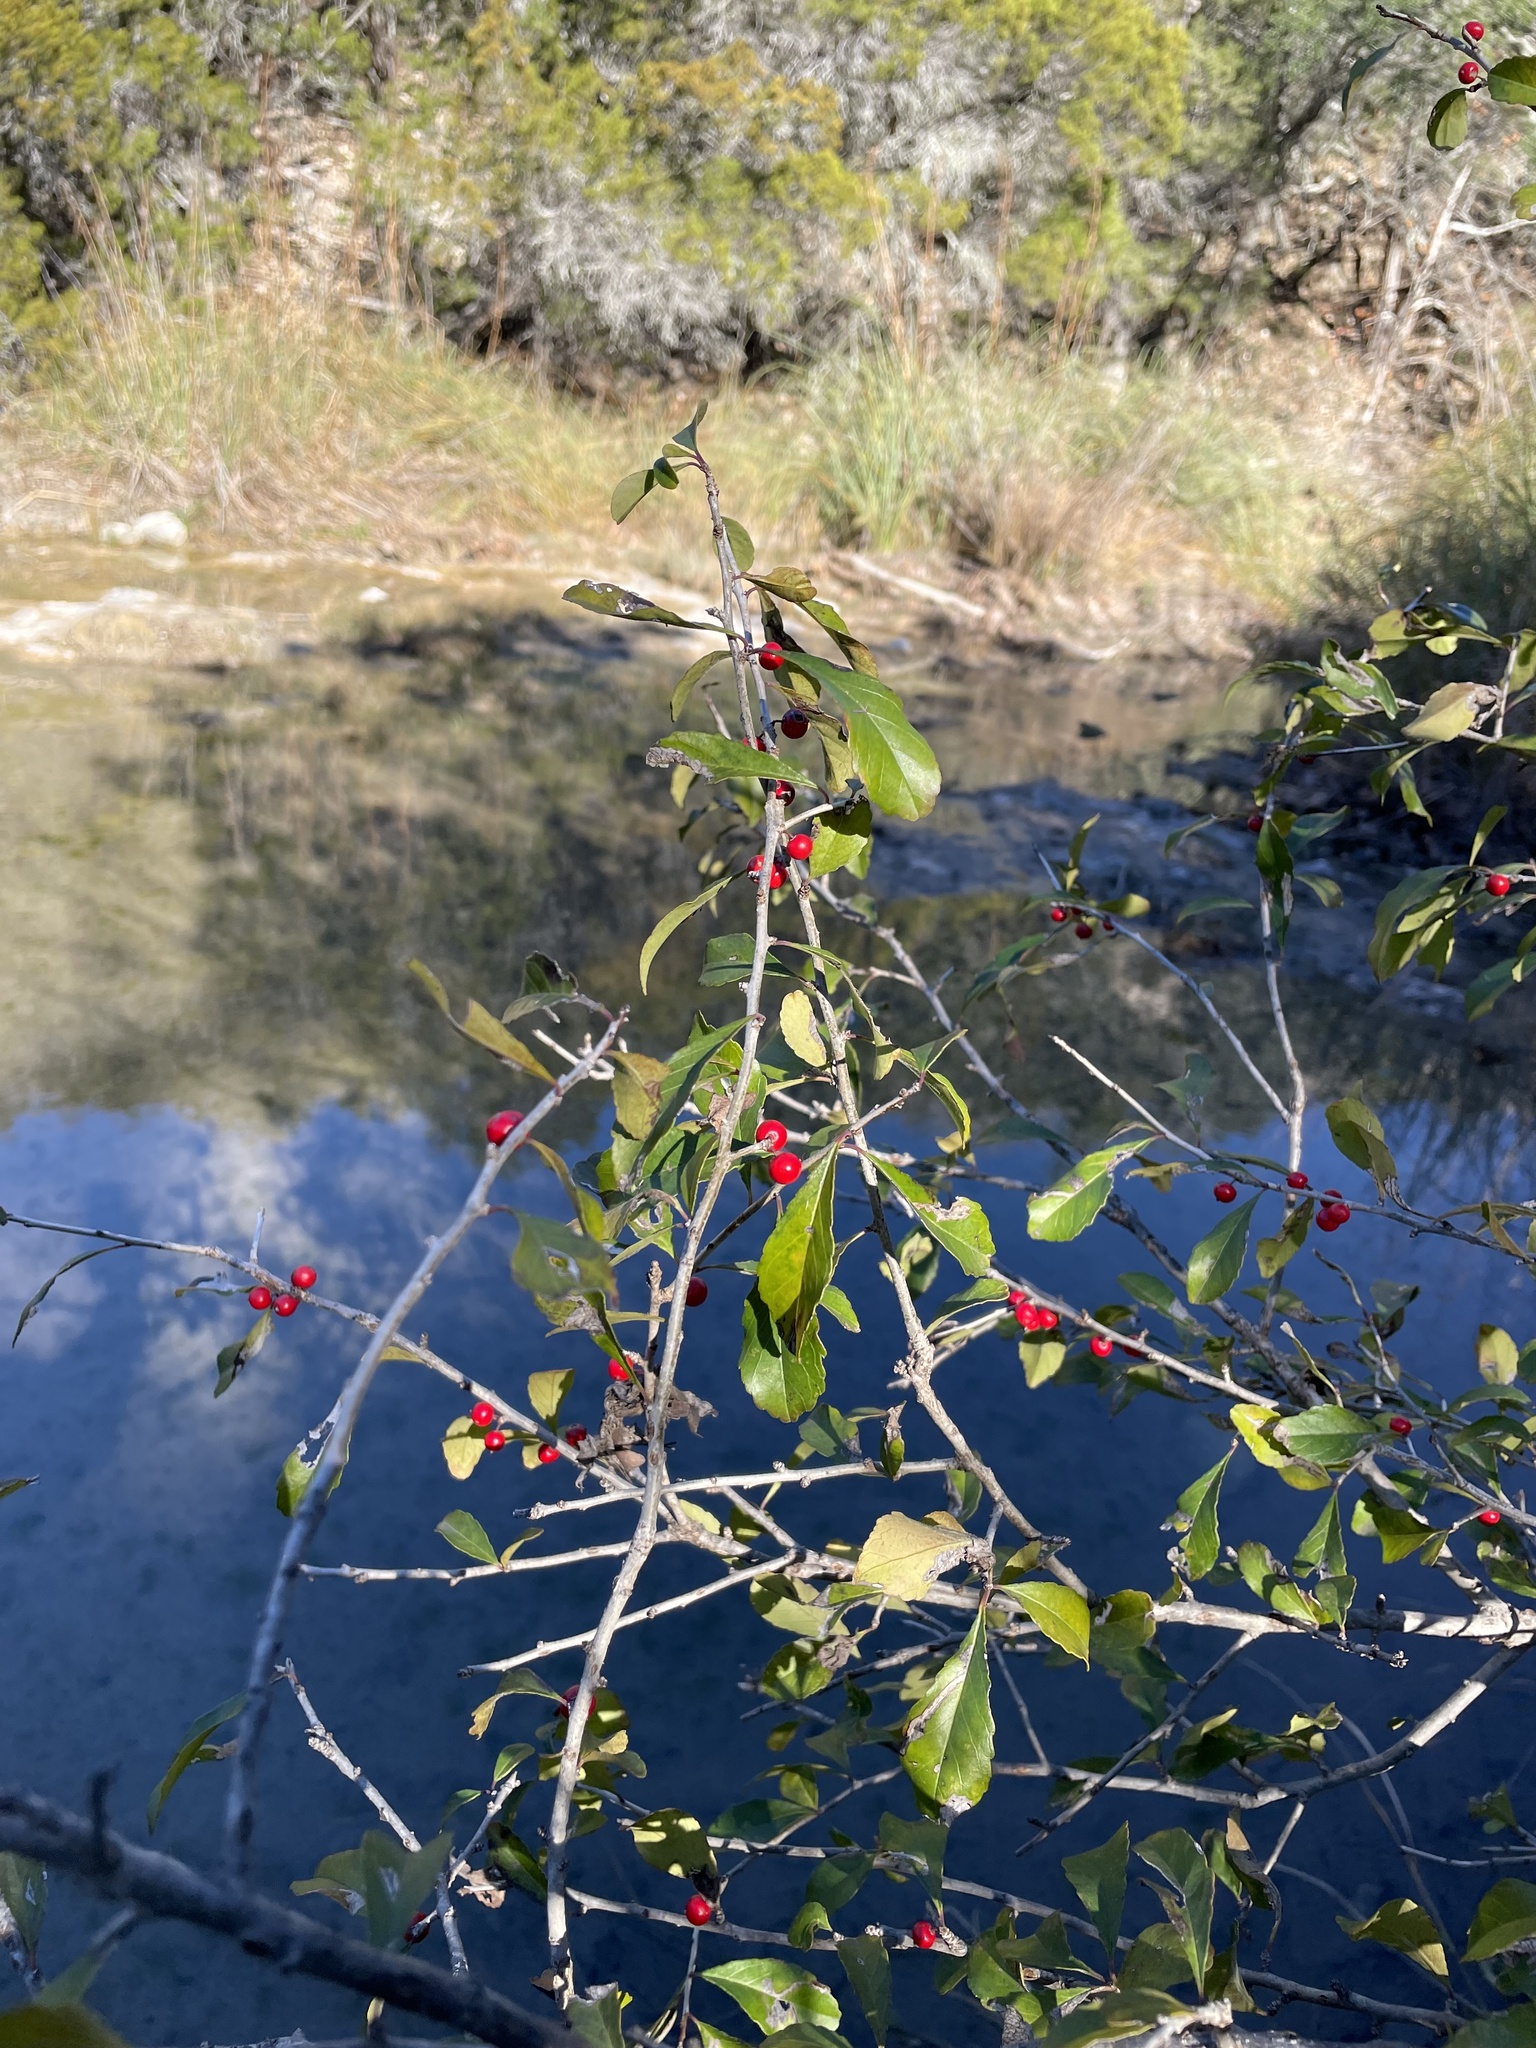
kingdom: Plantae
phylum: Tracheophyta
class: Magnoliopsida
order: Aquifoliales
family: Aquifoliaceae
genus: Ilex
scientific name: Ilex decidua
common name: Possum-haw
